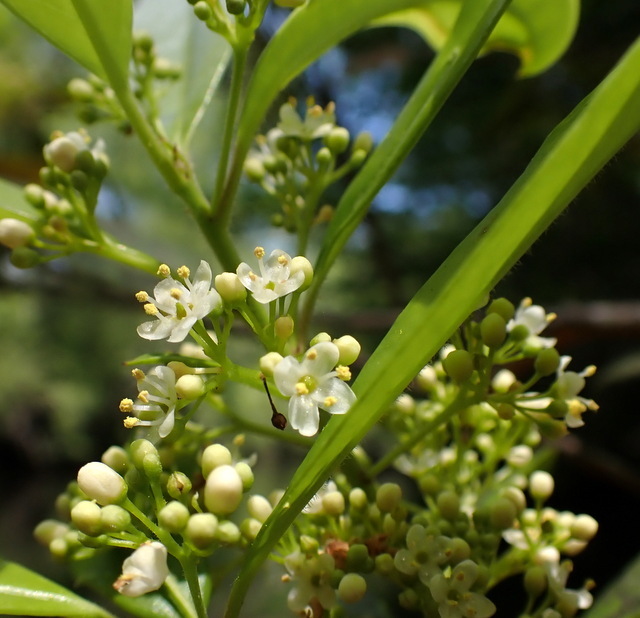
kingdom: Plantae
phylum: Tracheophyta
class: Magnoliopsida
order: Aquifoliales
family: Aquifoliaceae
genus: Ilex
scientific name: Ilex cassine
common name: Dahoon
